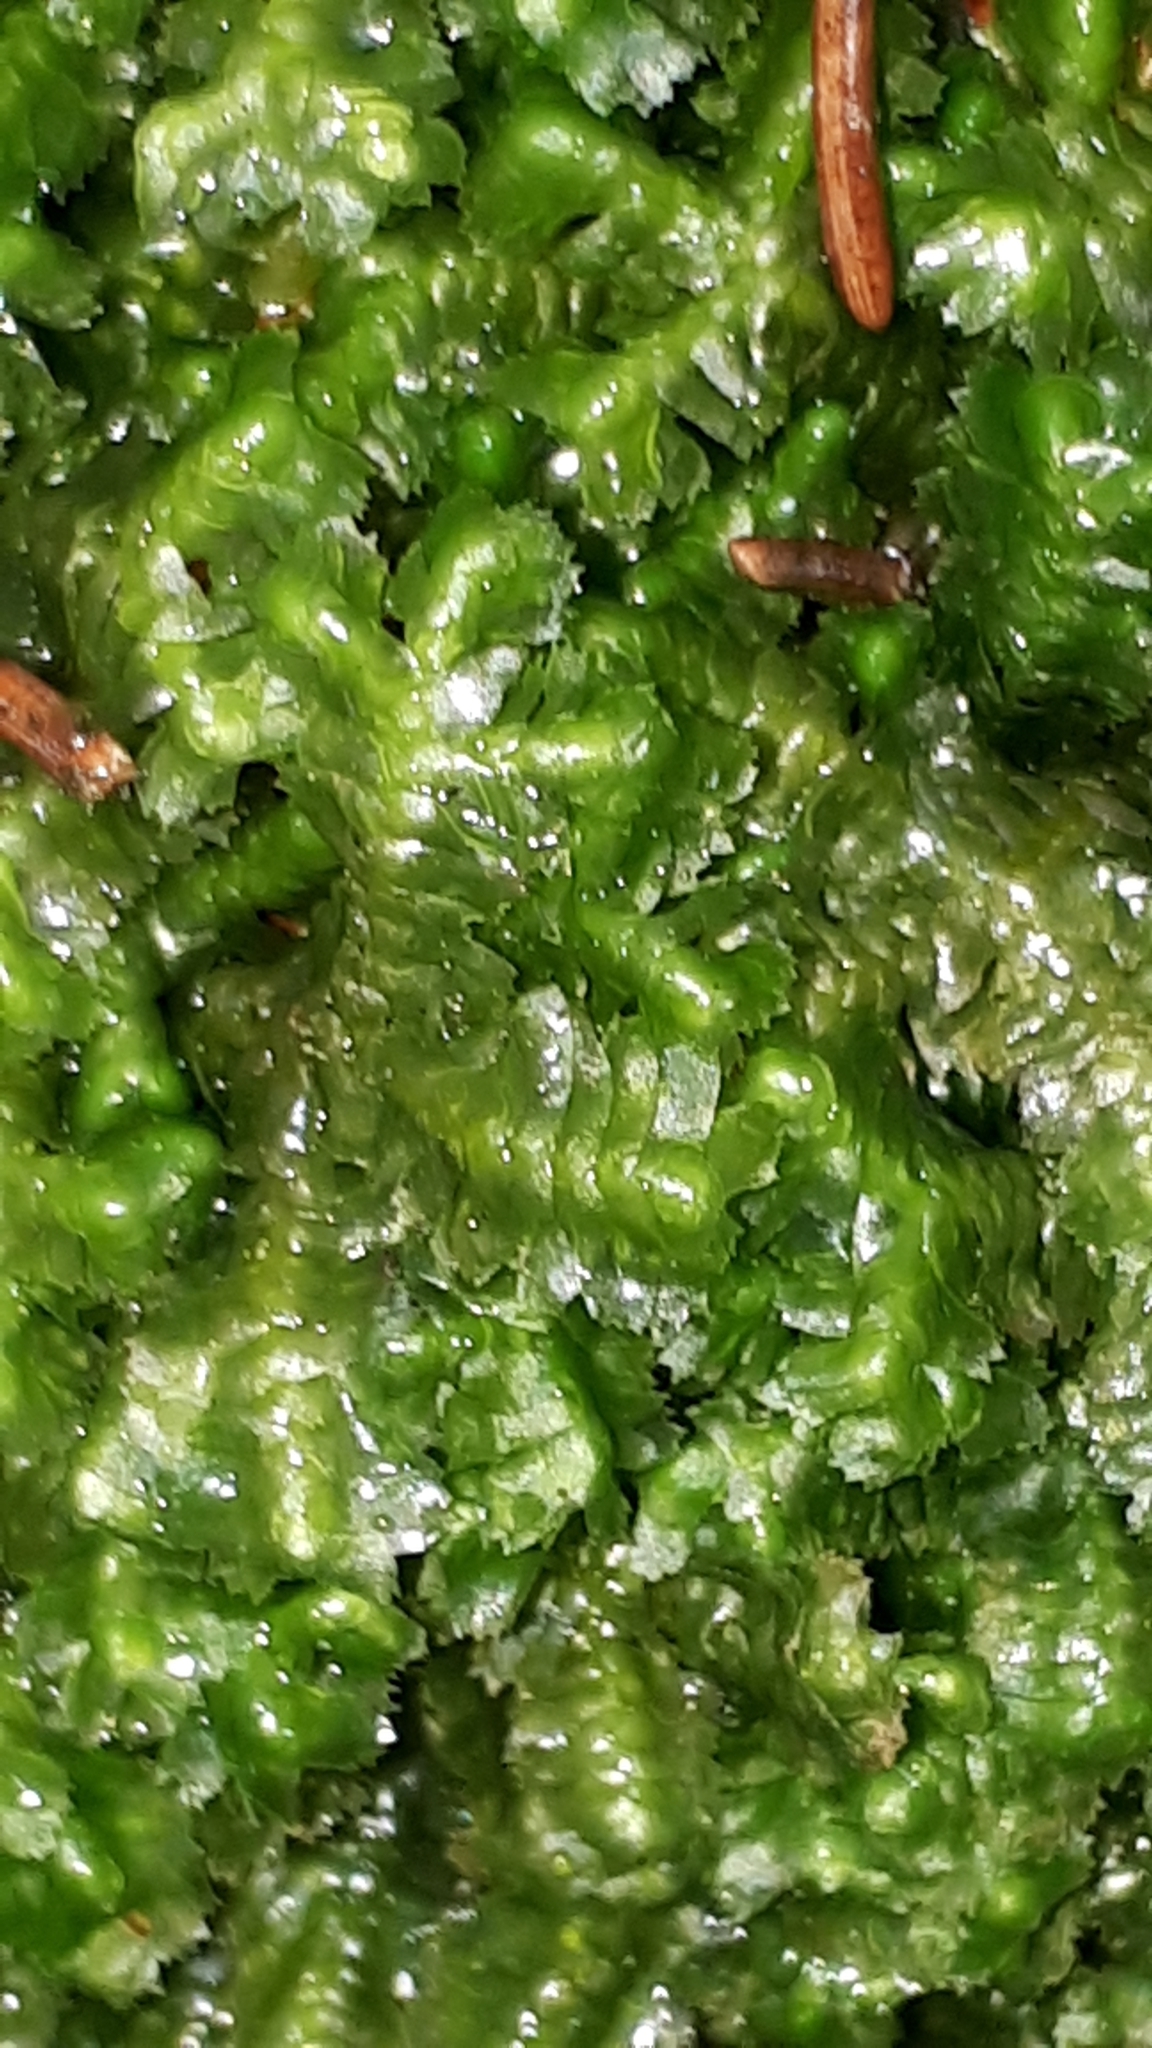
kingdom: Plantae
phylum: Marchantiophyta
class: Jungermanniopsida
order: Jungermanniales
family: Lepidoziaceae
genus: Bazzania
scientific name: Bazzania trilobata
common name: Three-lobed whipwort
